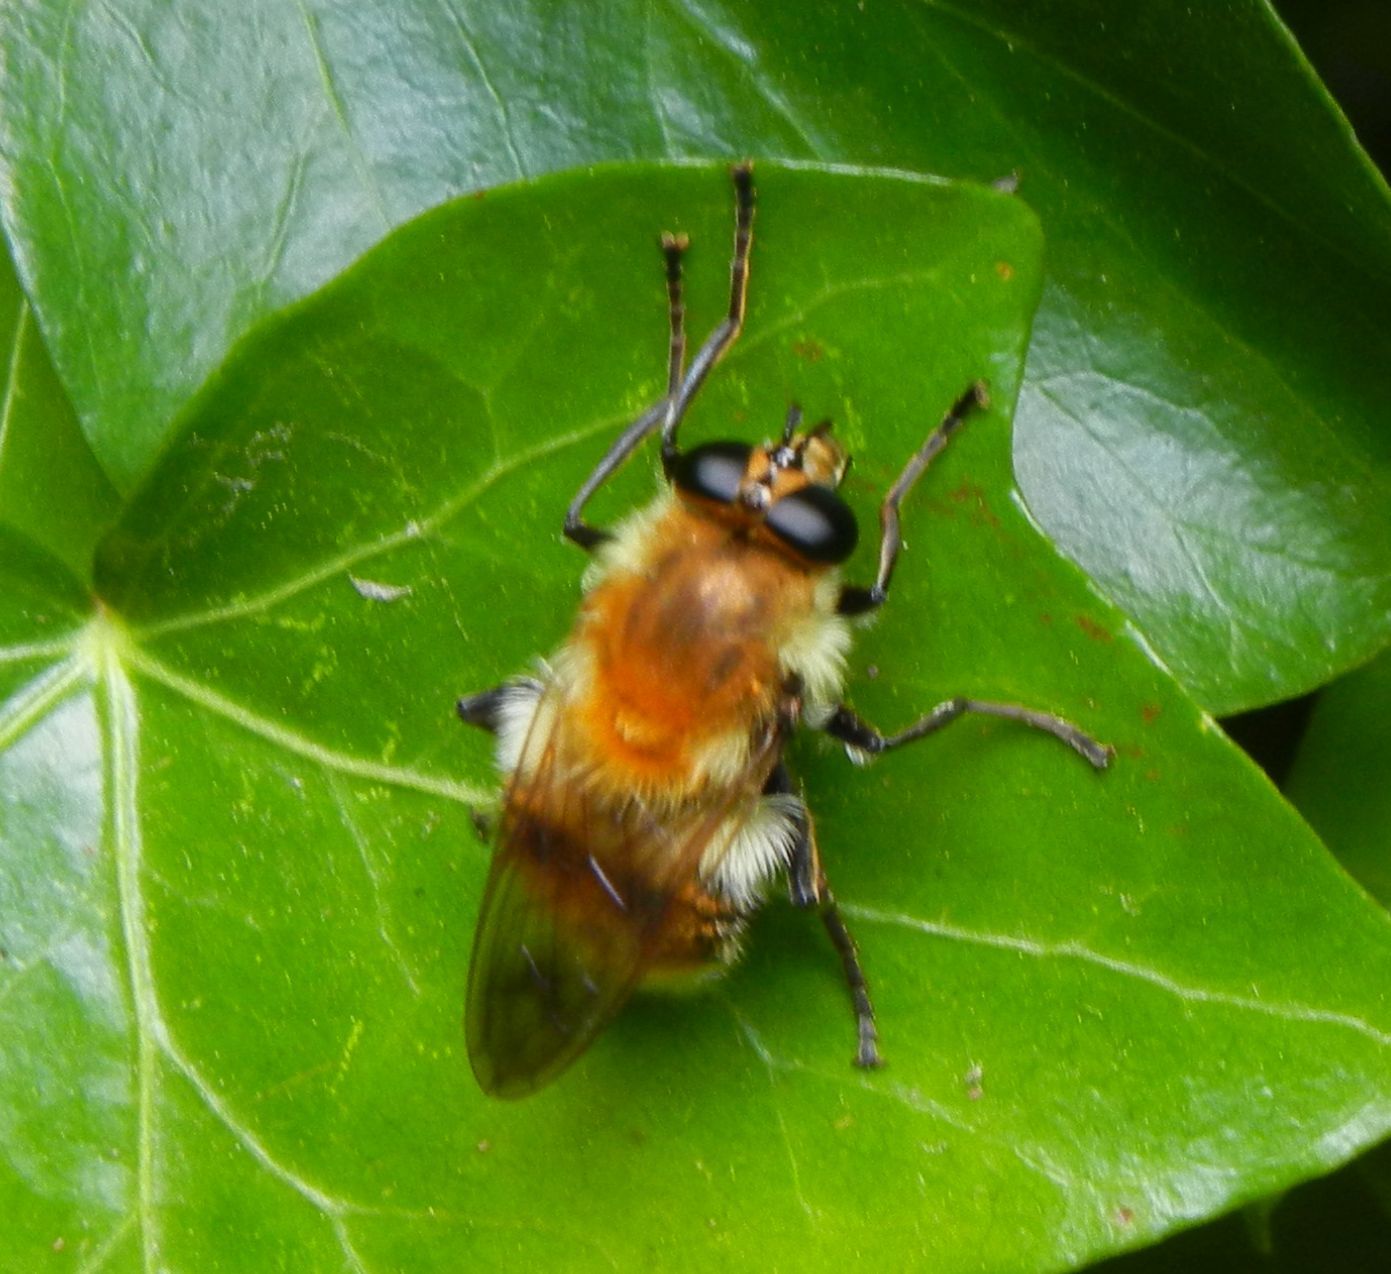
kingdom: Animalia
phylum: Arthropoda
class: Insecta
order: Diptera
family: Syrphidae
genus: Criorhina
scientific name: Criorhina floccosa
